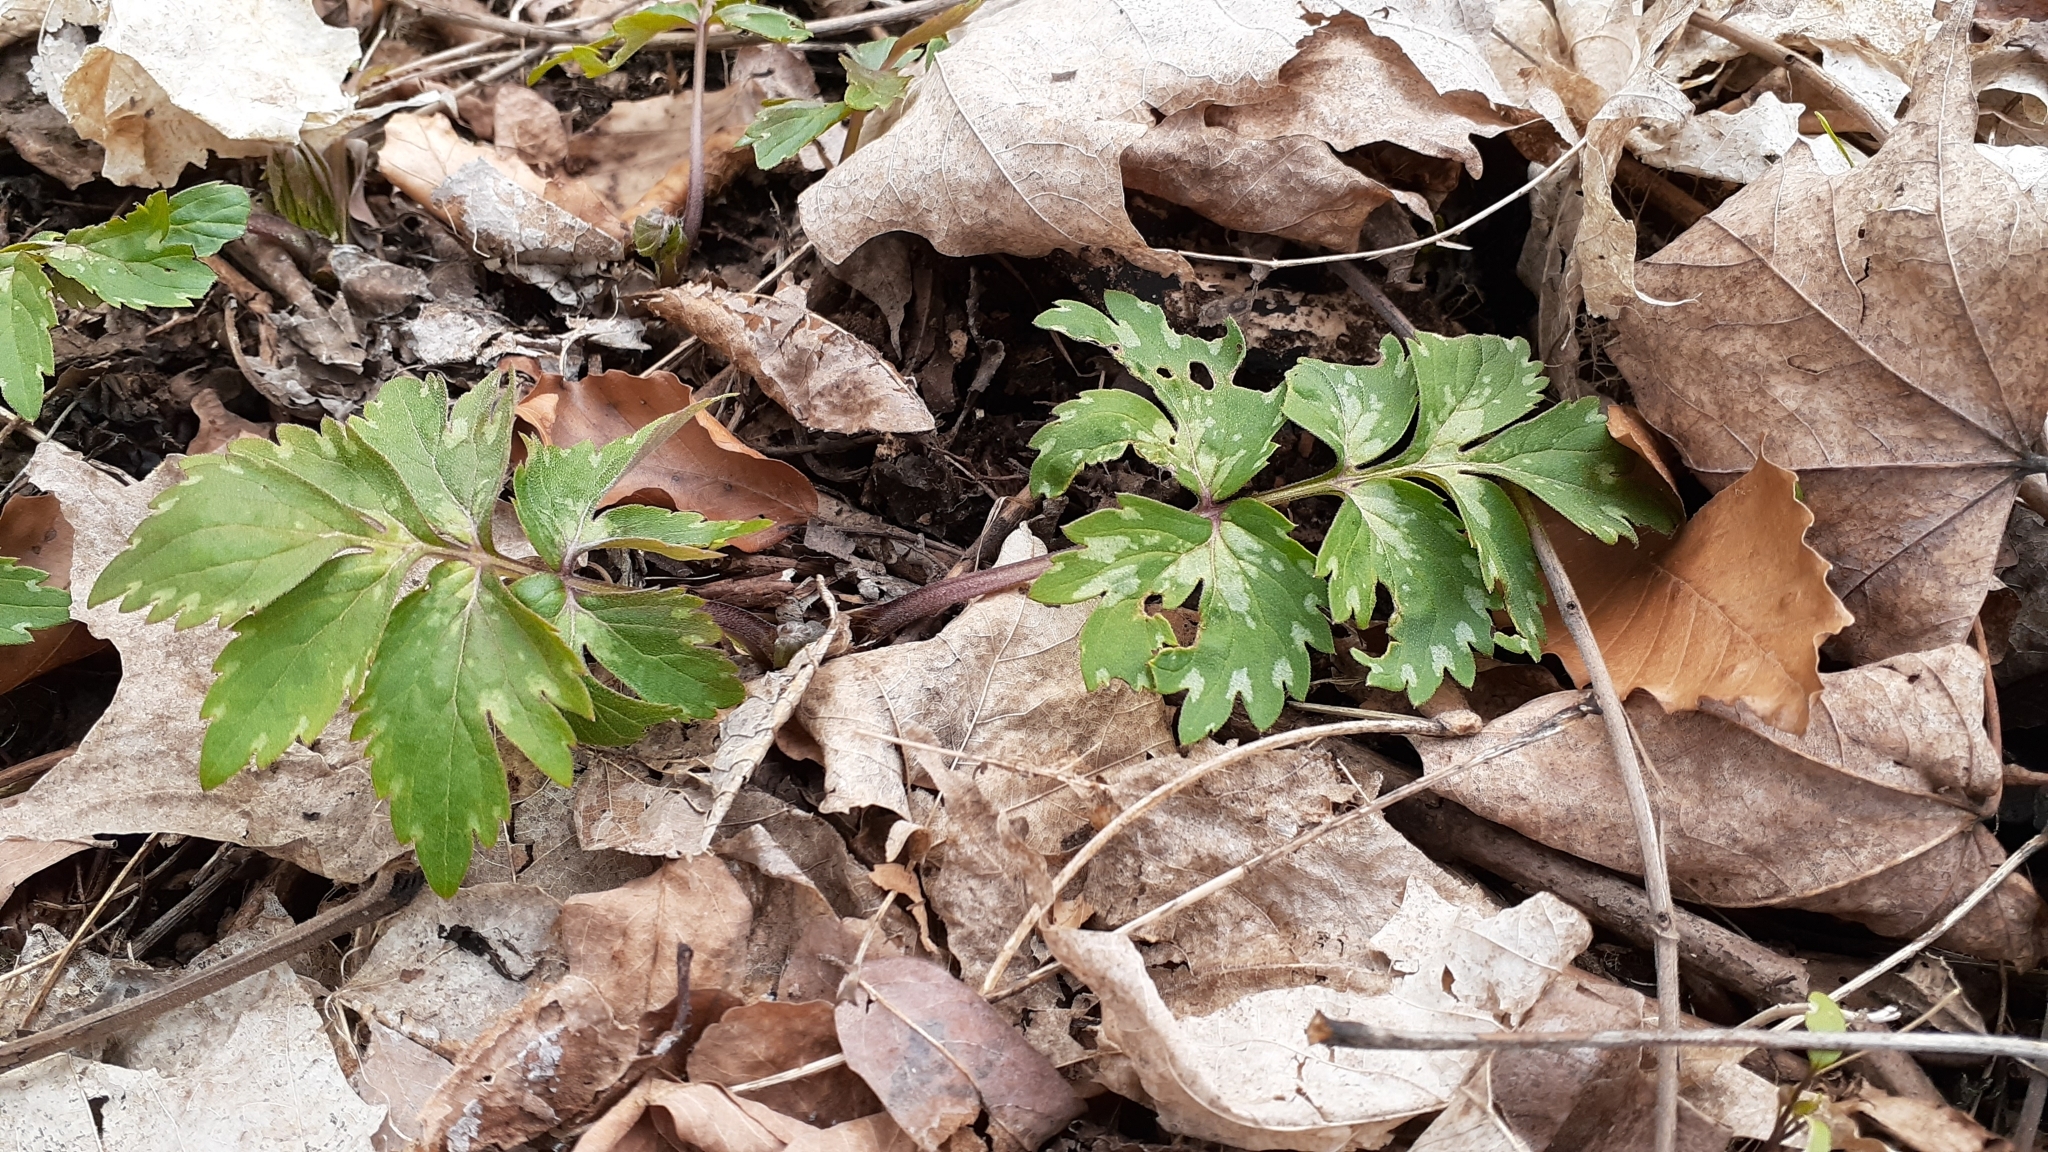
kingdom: Plantae
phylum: Tracheophyta
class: Magnoliopsida
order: Boraginales
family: Hydrophyllaceae
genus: Hydrophyllum
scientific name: Hydrophyllum virginianum
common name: Virginia waterleaf
